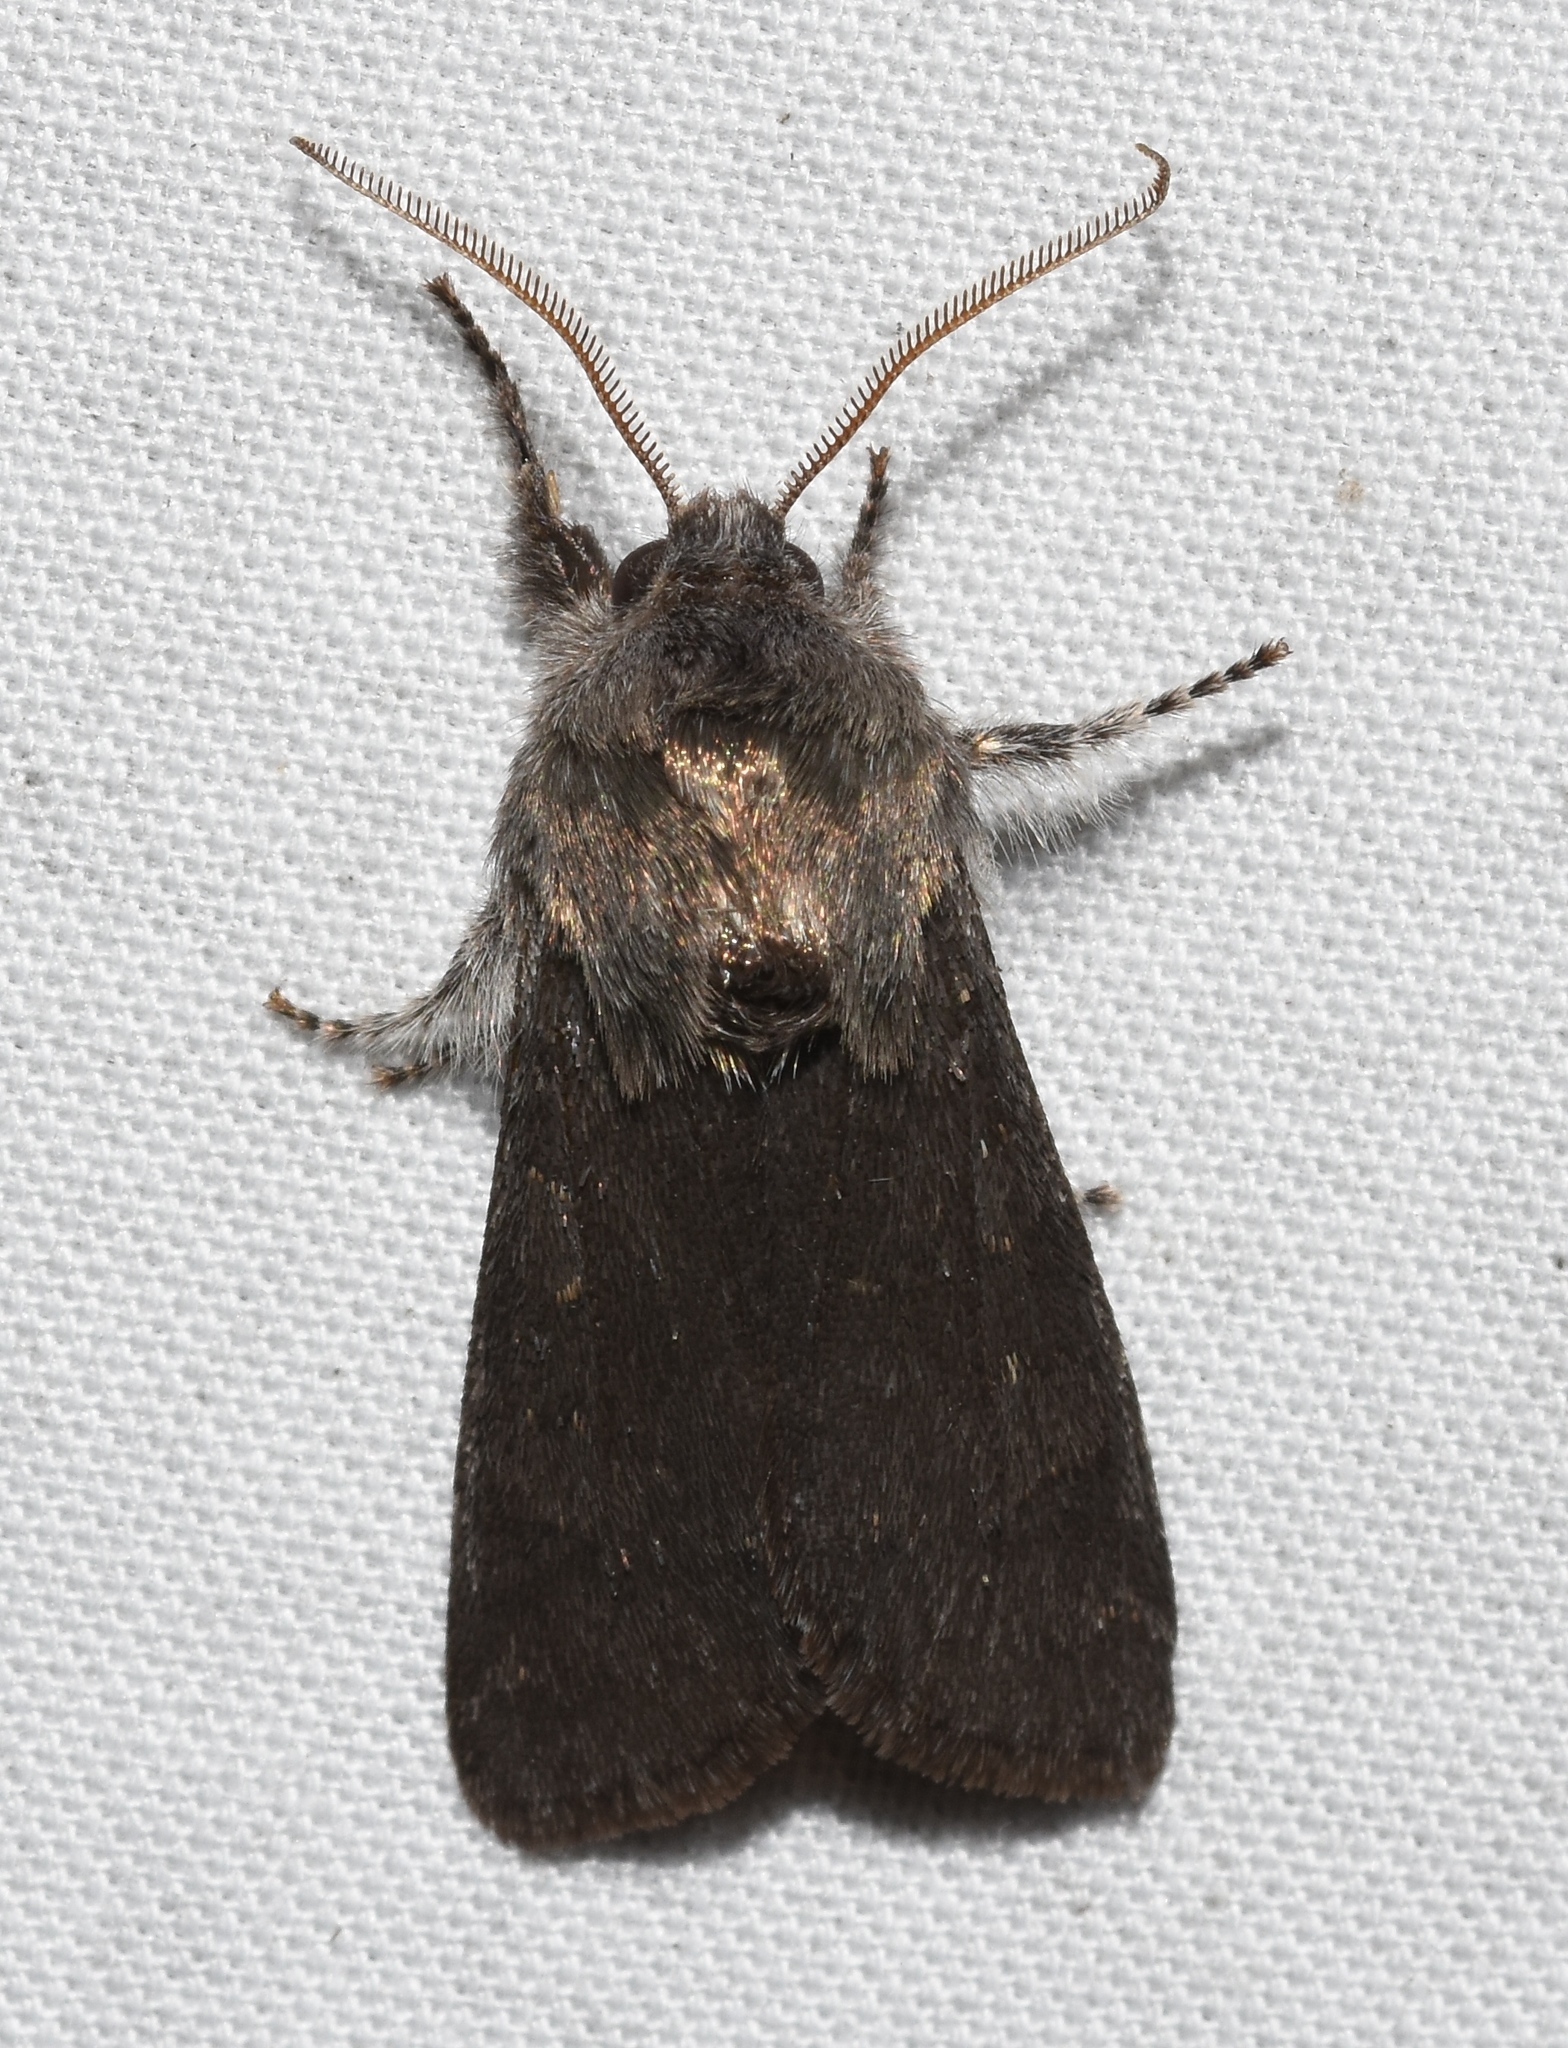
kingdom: Animalia
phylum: Arthropoda
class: Insecta
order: Lepidoptera
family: Noctuidae
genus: Psaphida
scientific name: Psaphida rolandi
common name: Roland's sallow
